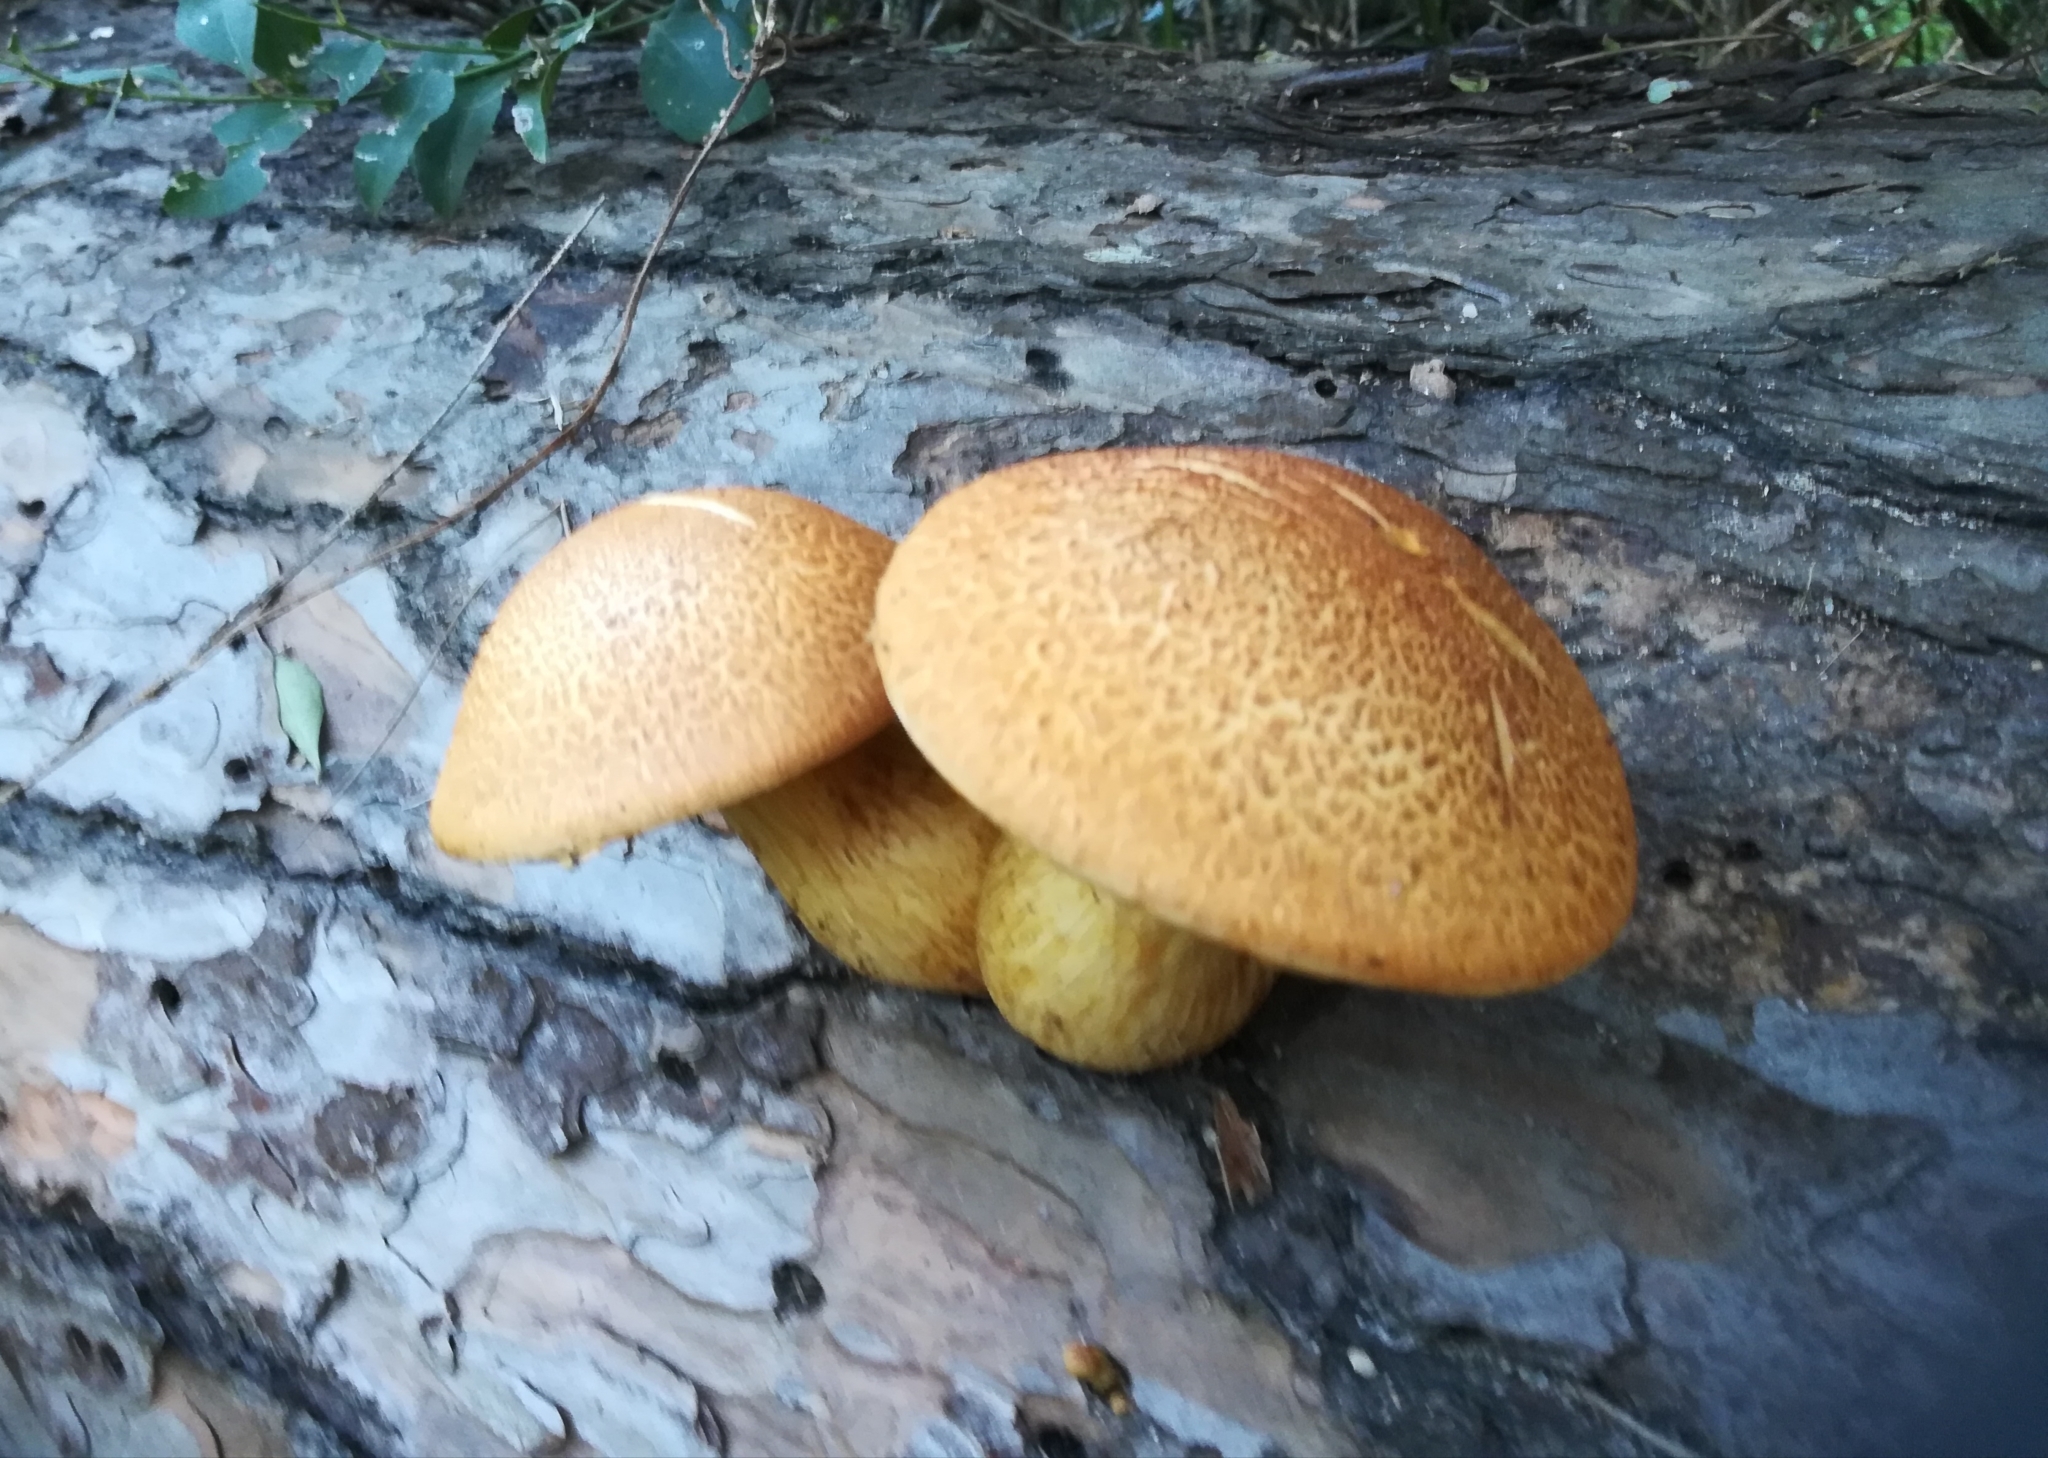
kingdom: Fungi
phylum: Basidiomycota
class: Agaricomycetes
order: Agaricales
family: Hymenogastraceae
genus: Gymnopilus
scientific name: Gymnopilus junonius
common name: Spectacular rustgill
